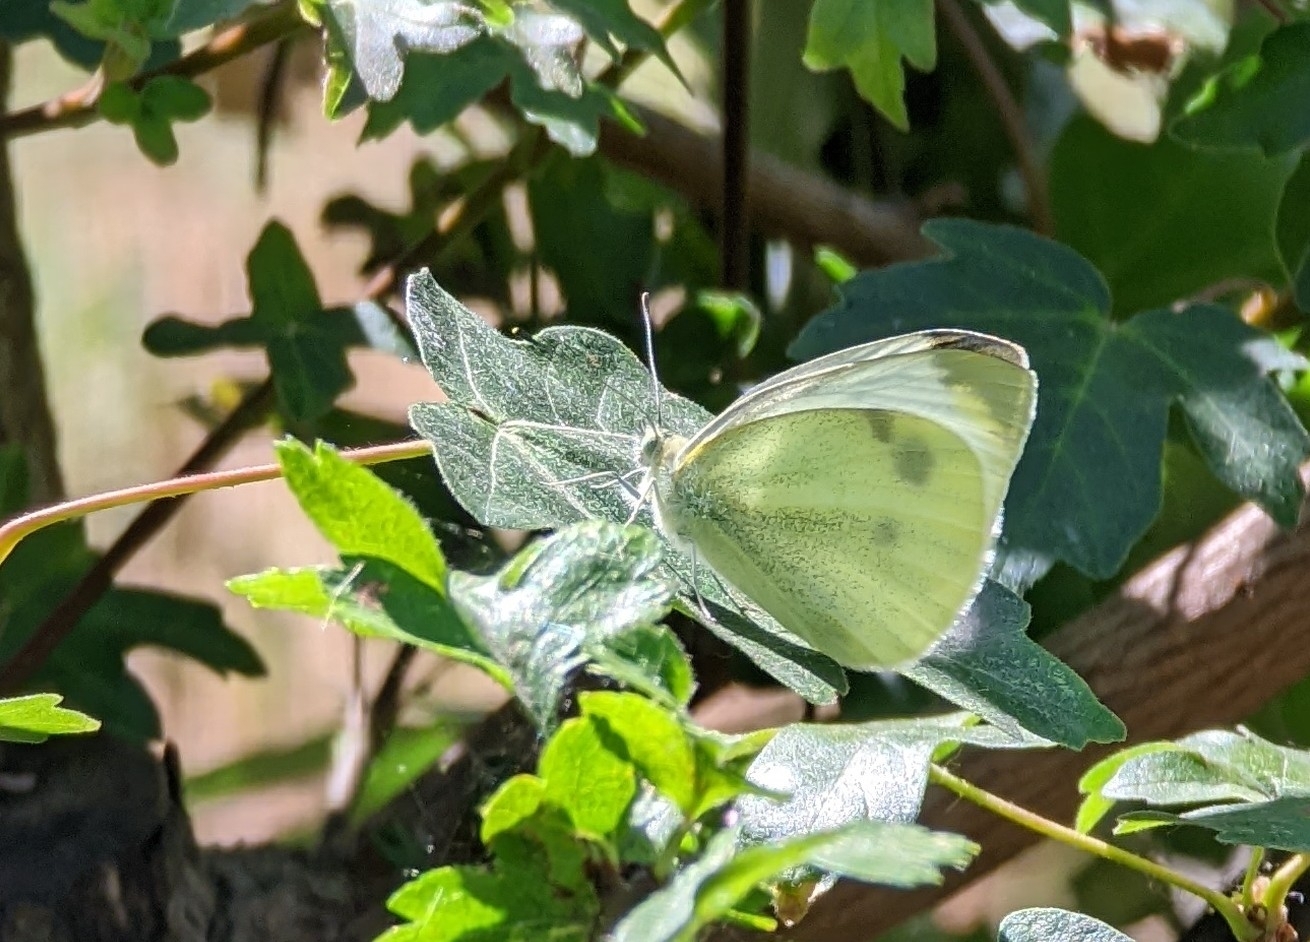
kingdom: Animalia
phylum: Arthropoda
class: Insecta
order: Lepidoptera
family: Pieridae
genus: Pieris
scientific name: Pieris rapae
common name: Small white
